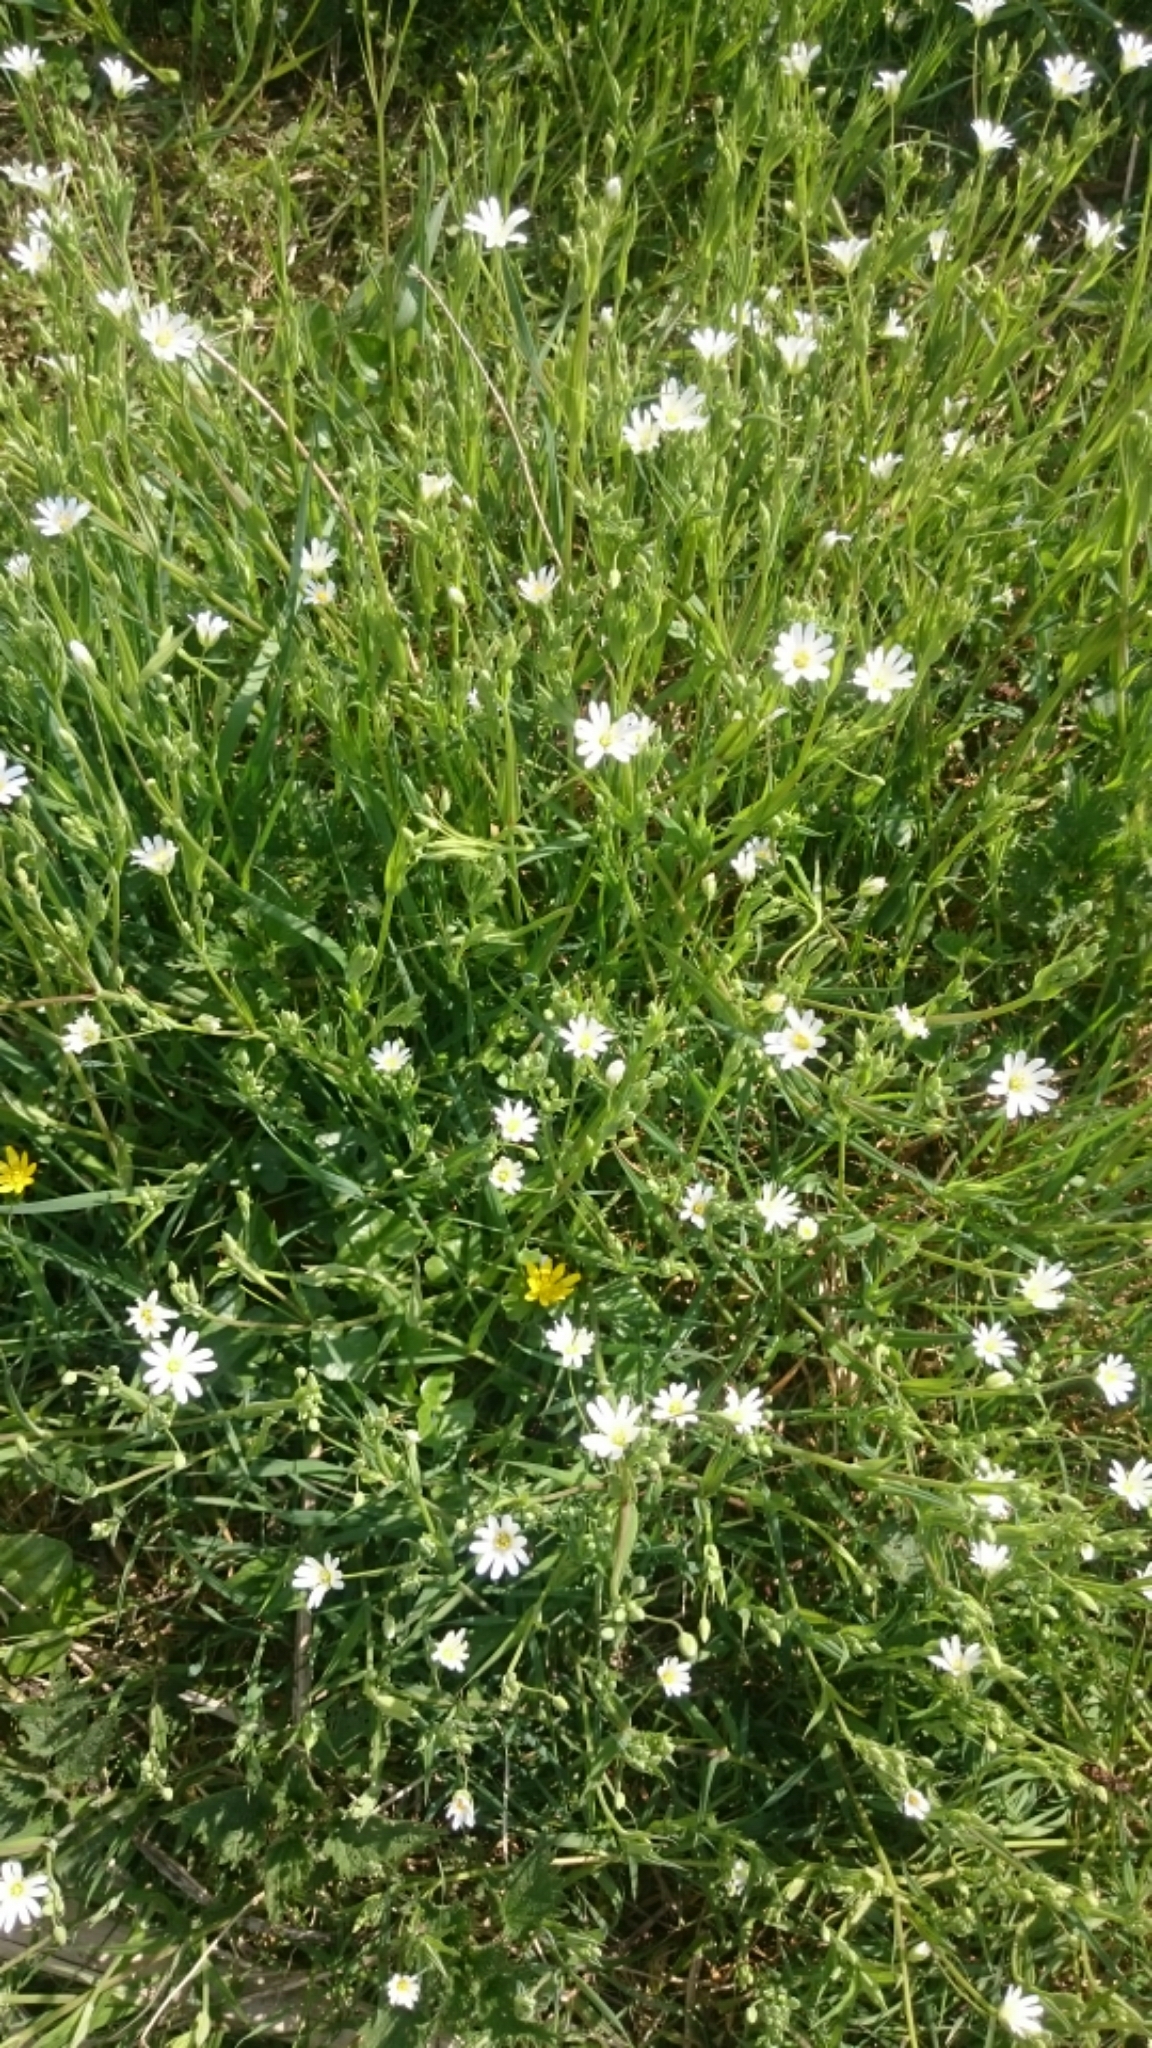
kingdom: Plantae
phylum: Tracheophyta
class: Magnoliopsida
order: Caryophyllales
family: Caryophyllaceae
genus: Rabelera
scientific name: Rabelera holostea
